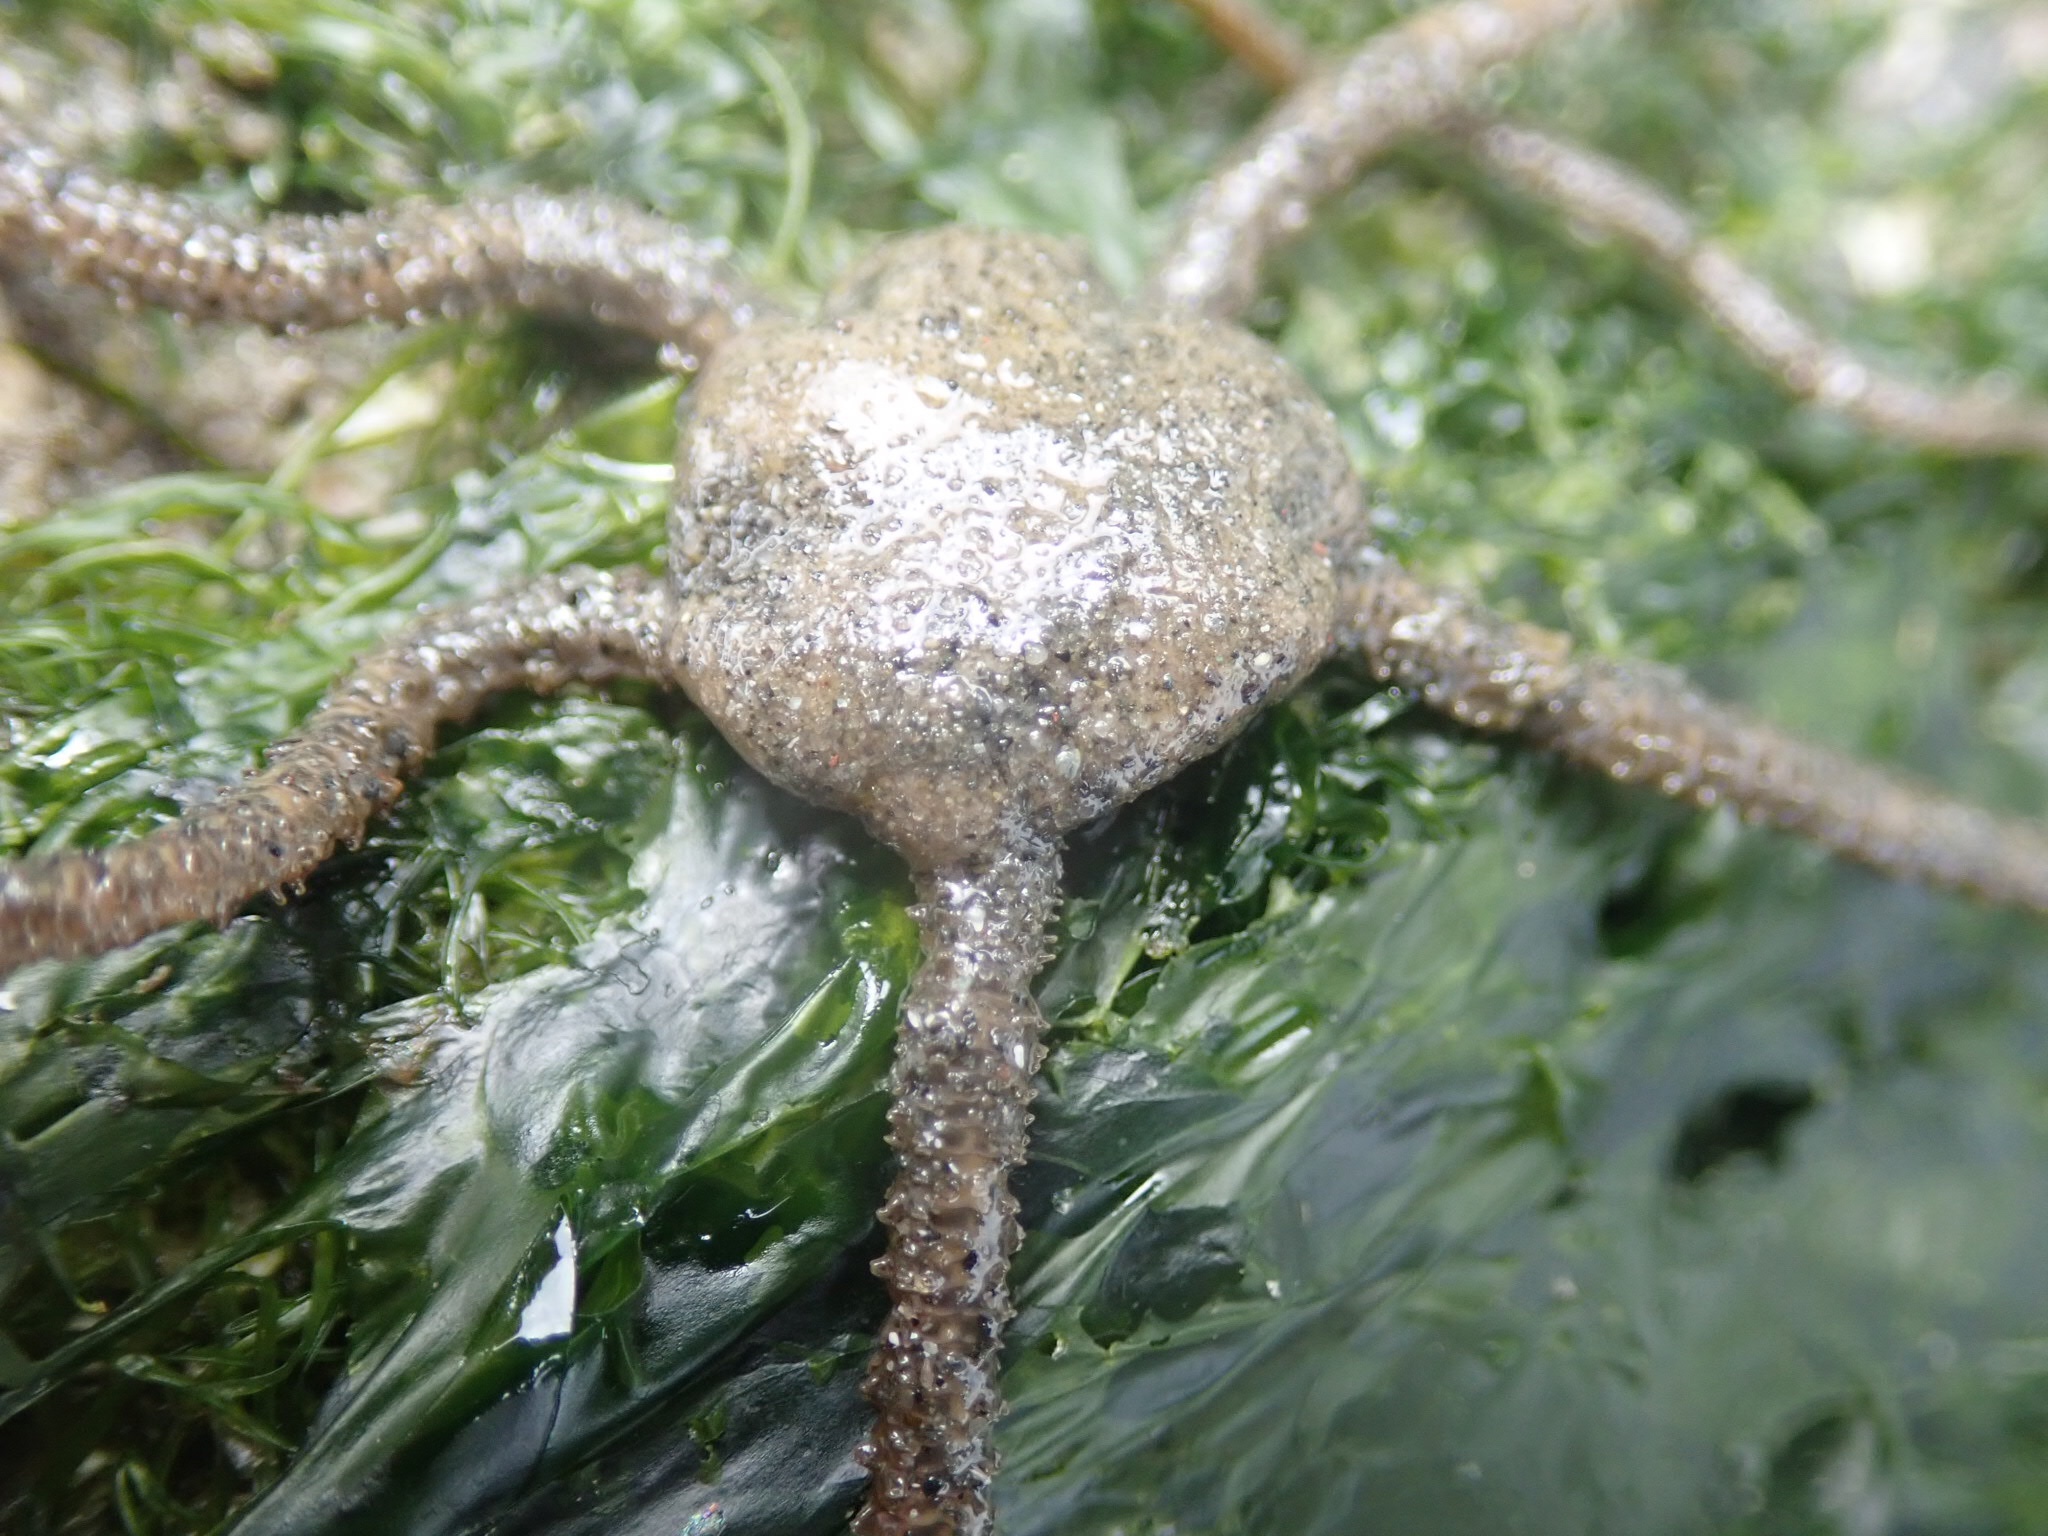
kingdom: Animalia
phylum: Echinodermata
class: Ophiuroidea
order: Amphilepidida
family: Amphiuridae
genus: Amphiodia
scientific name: Amphiodia occidentalis
